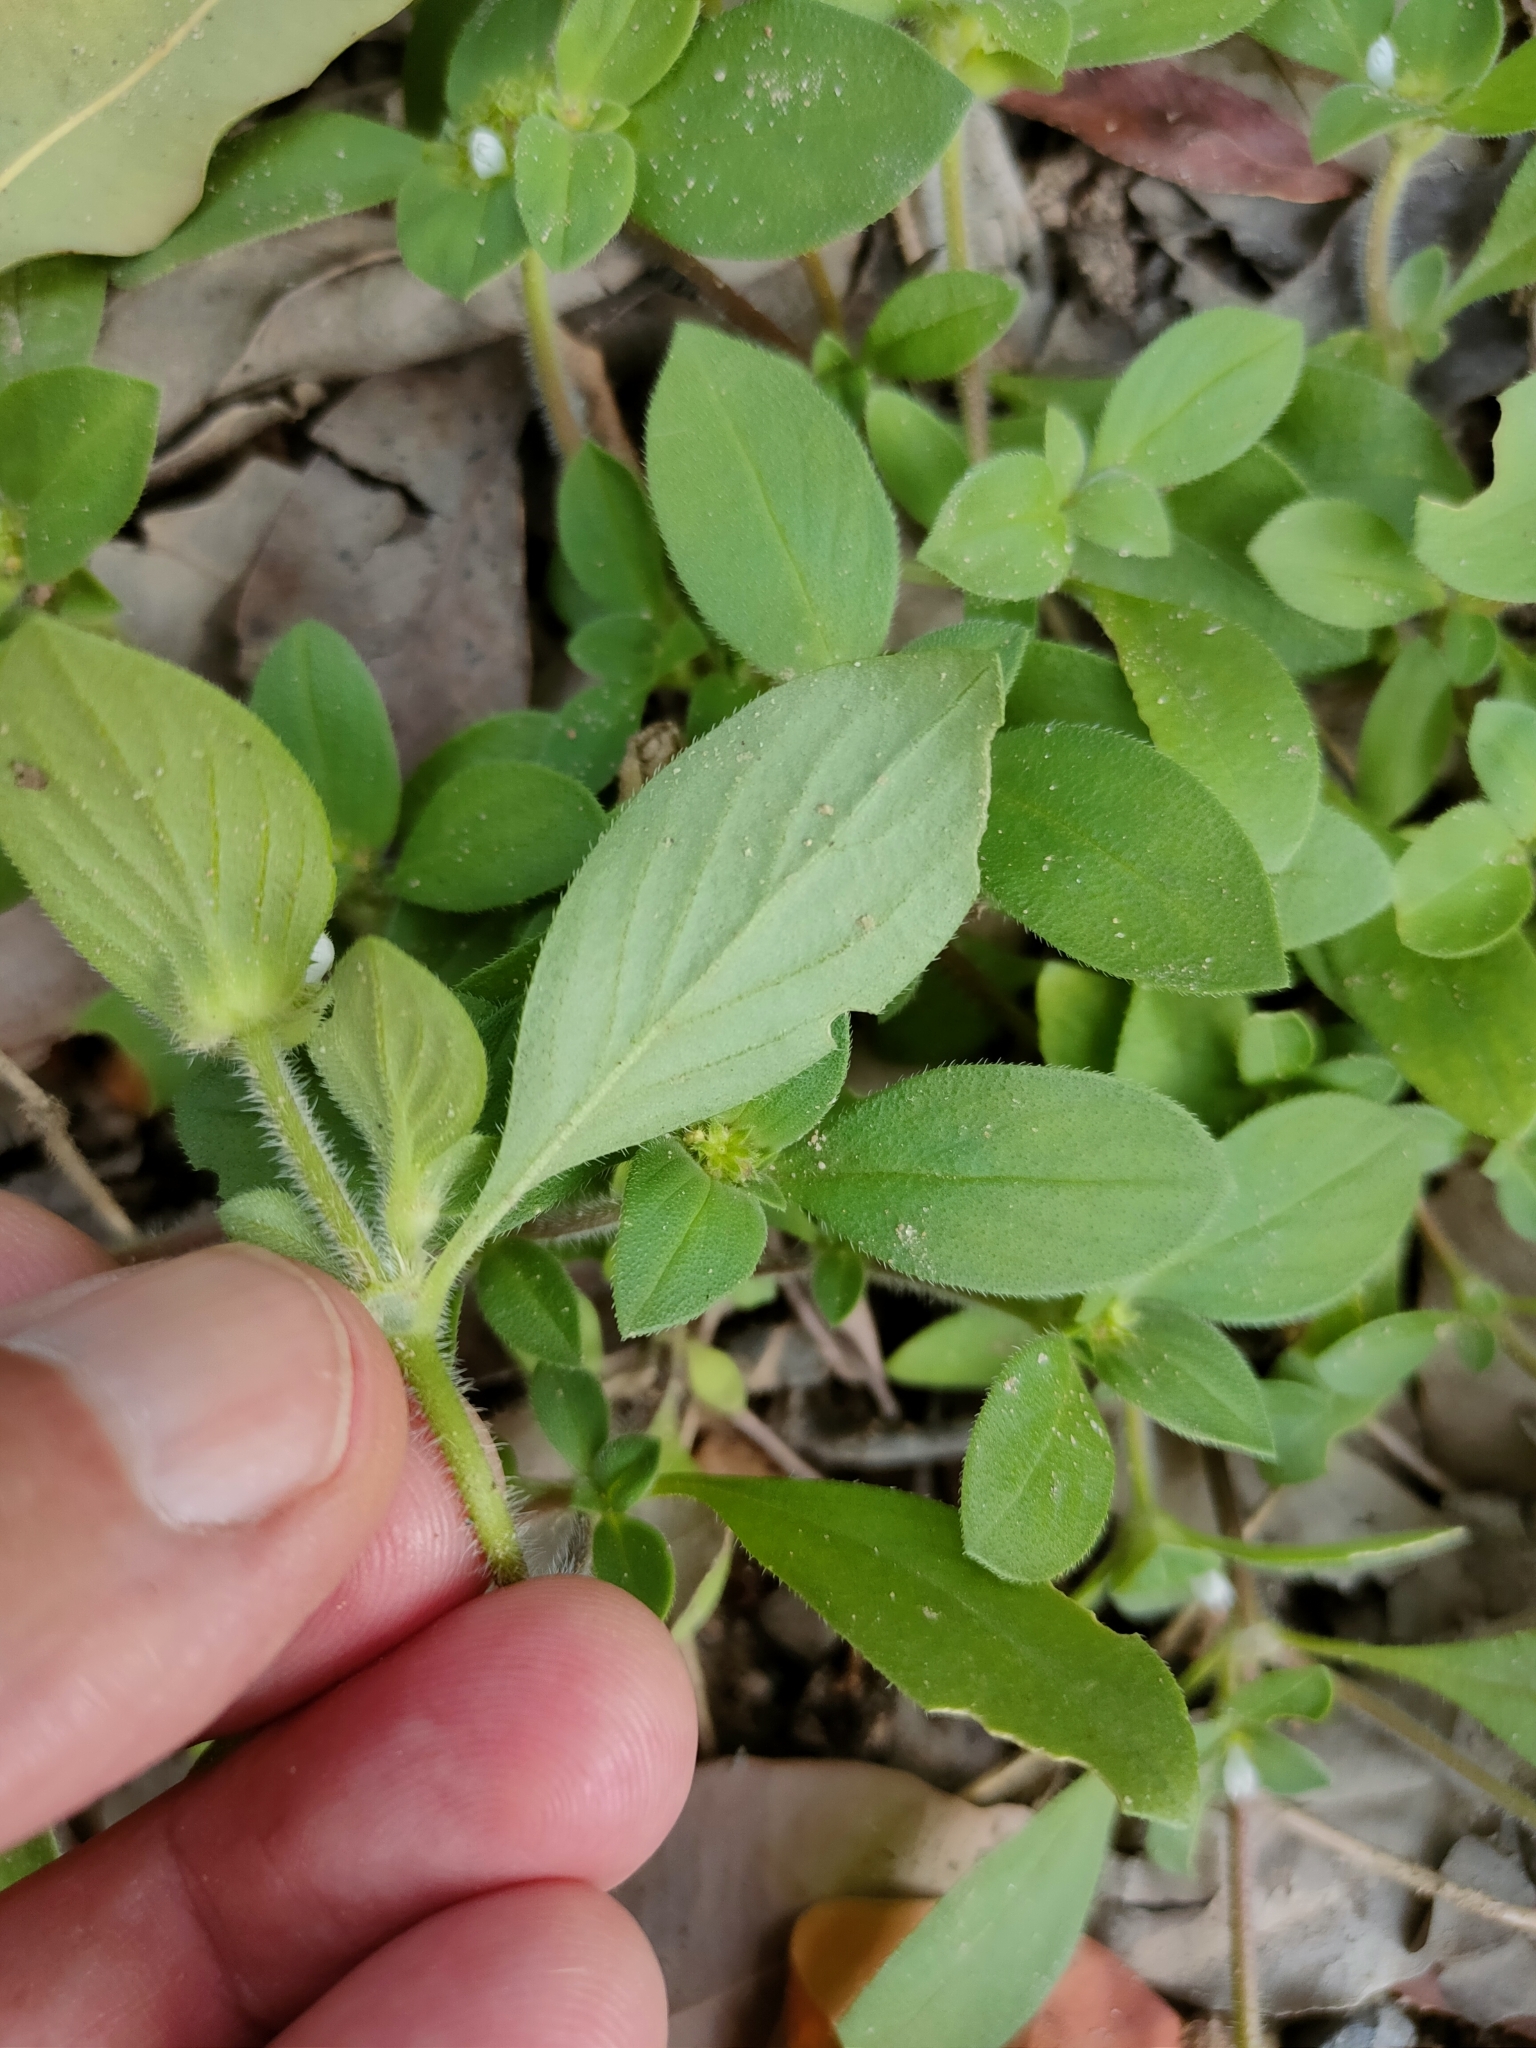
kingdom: Plantae
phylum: Tracheophyta
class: Magnoliopsida
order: Gentianales
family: Rubiaceae
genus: Richardia
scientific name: Richardia brasiliensis
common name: Tropical mexican clover
